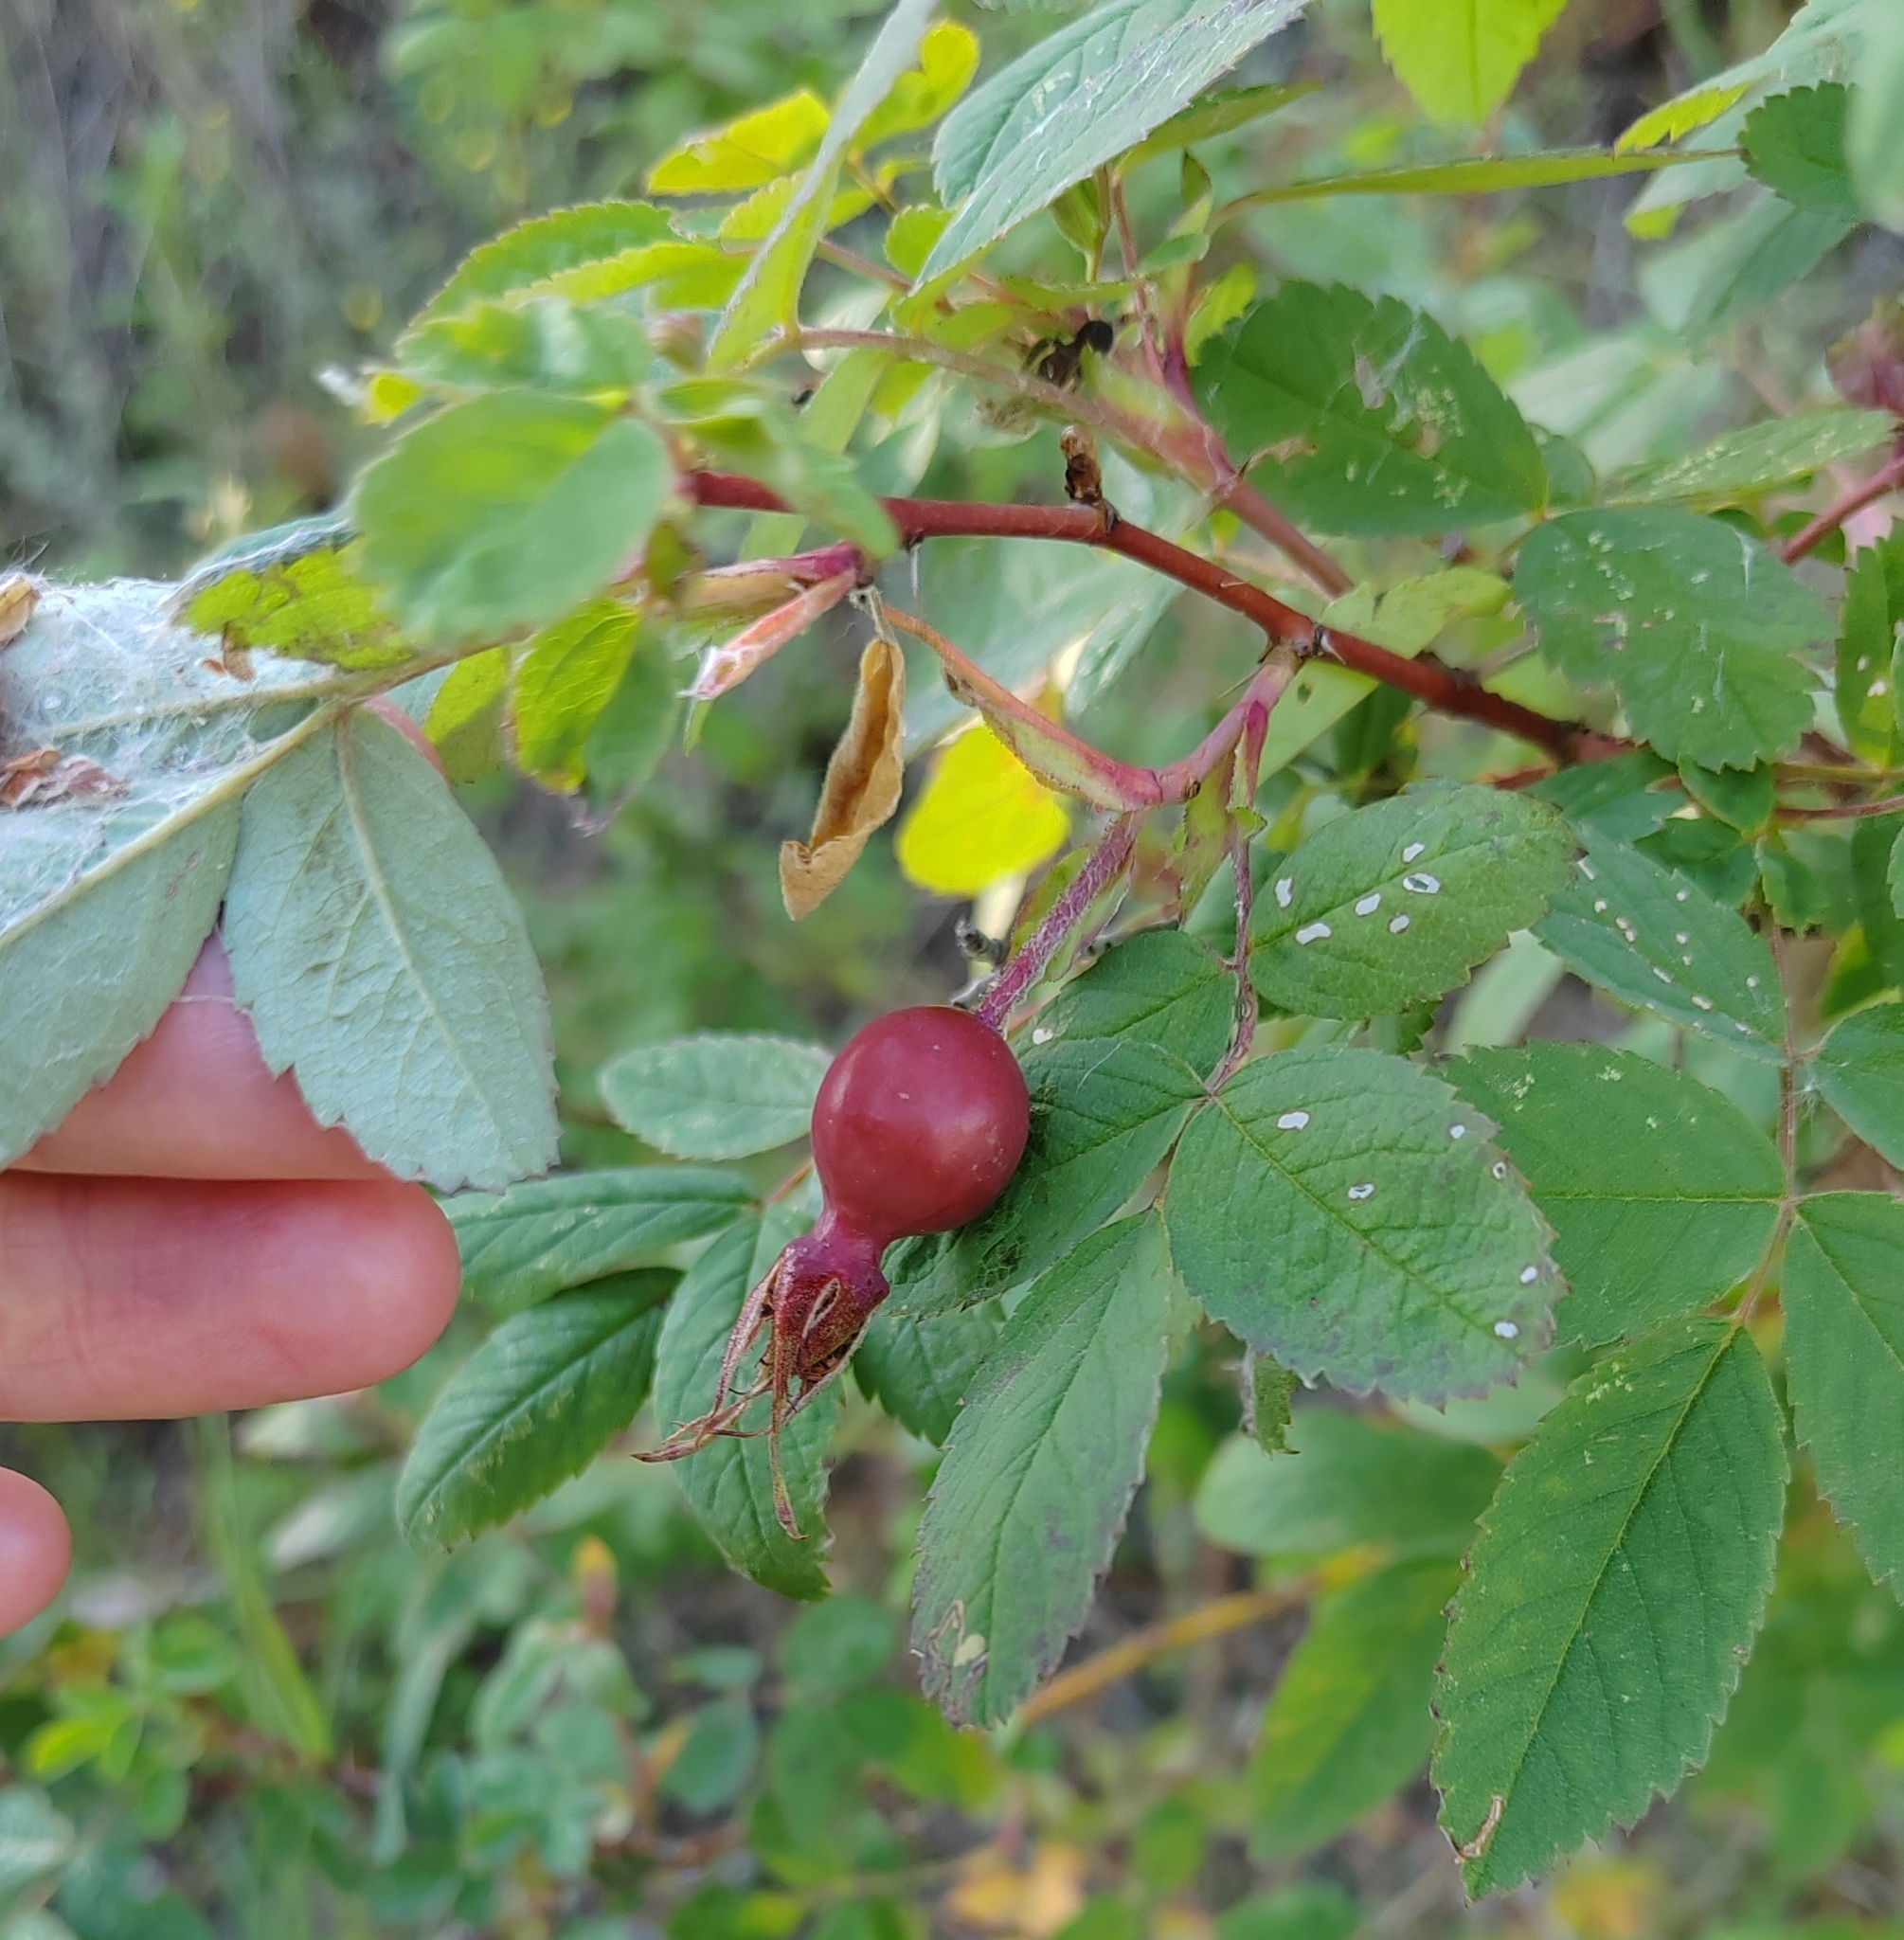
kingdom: Plantae
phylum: Tracheophyta
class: Magnoliopsida
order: Rosales
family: Rosaceae
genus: Rosa
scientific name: Rosa majalis
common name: Cinnamon rose
